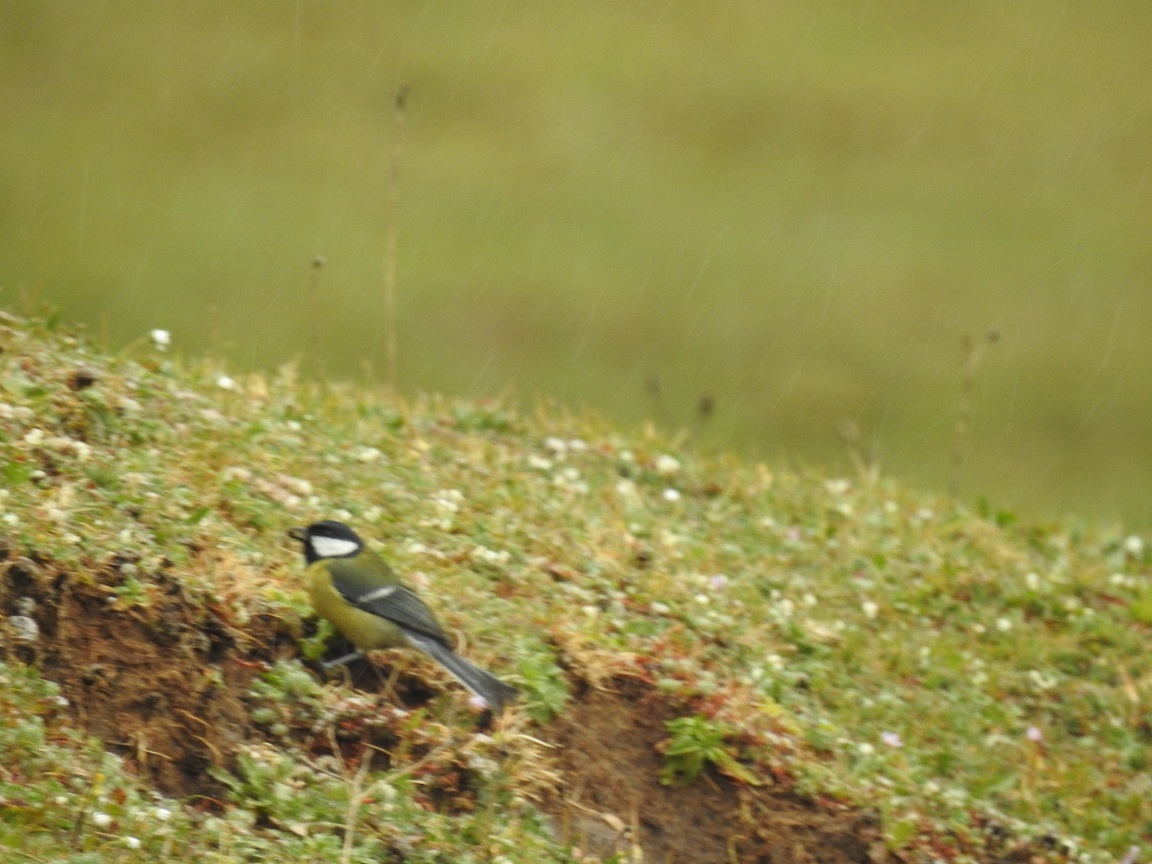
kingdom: Animalia
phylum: Chordata
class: Aves
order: Passeriformes
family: Paridae
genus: Parus
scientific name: Parus major
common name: Great tit
